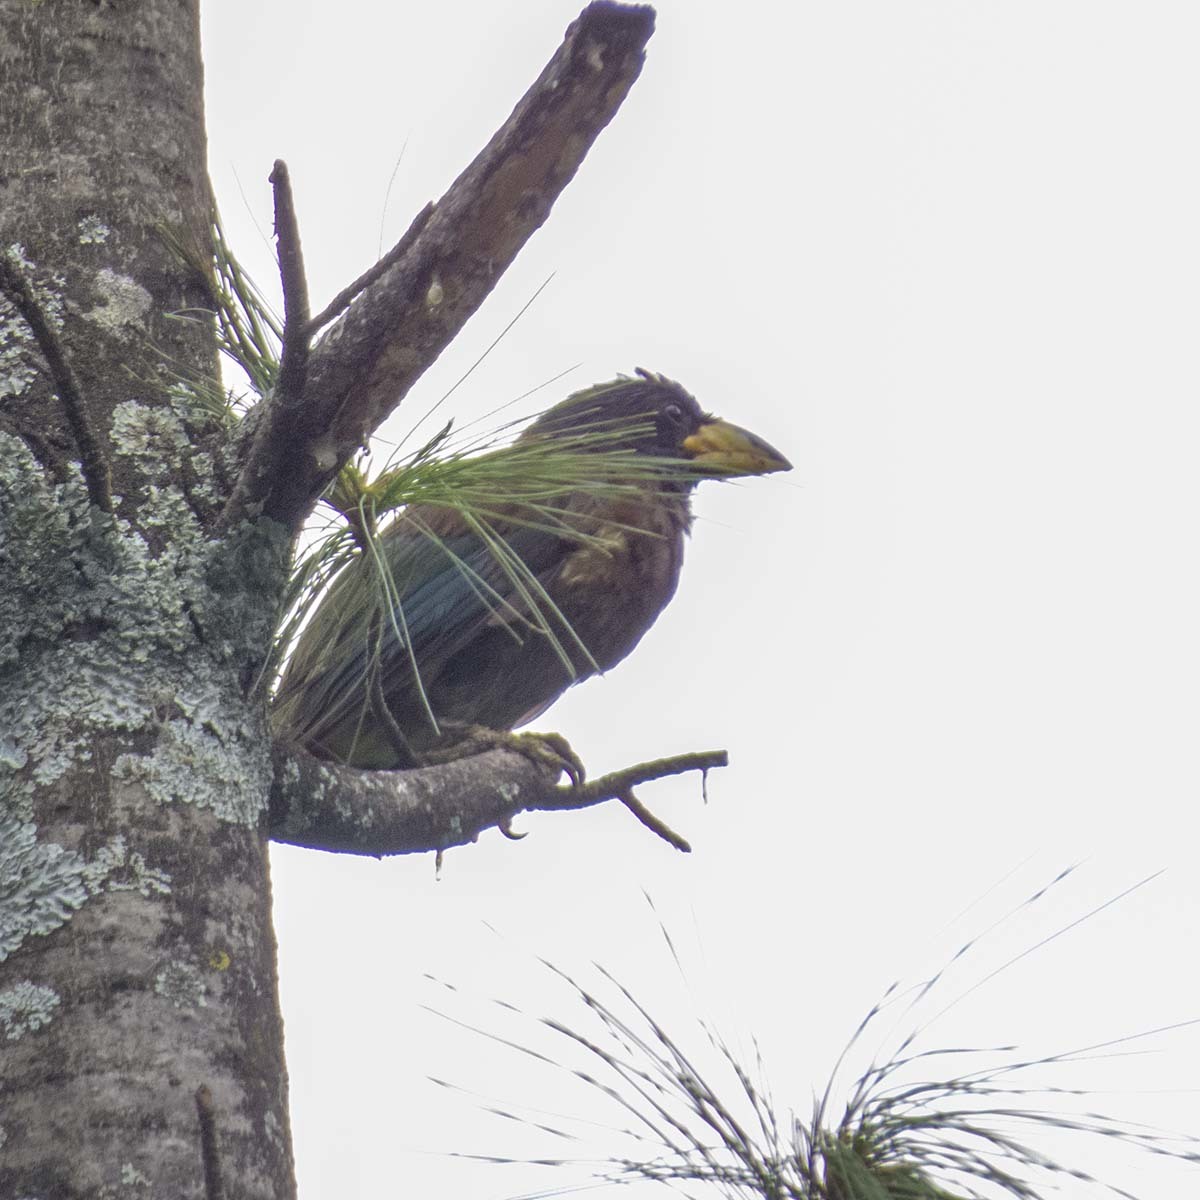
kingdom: Animalia
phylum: Chordata
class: Aves
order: Piciformes
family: Megalaimidae
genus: Psilopogon
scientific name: Psilopogon virens
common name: Great barbet
